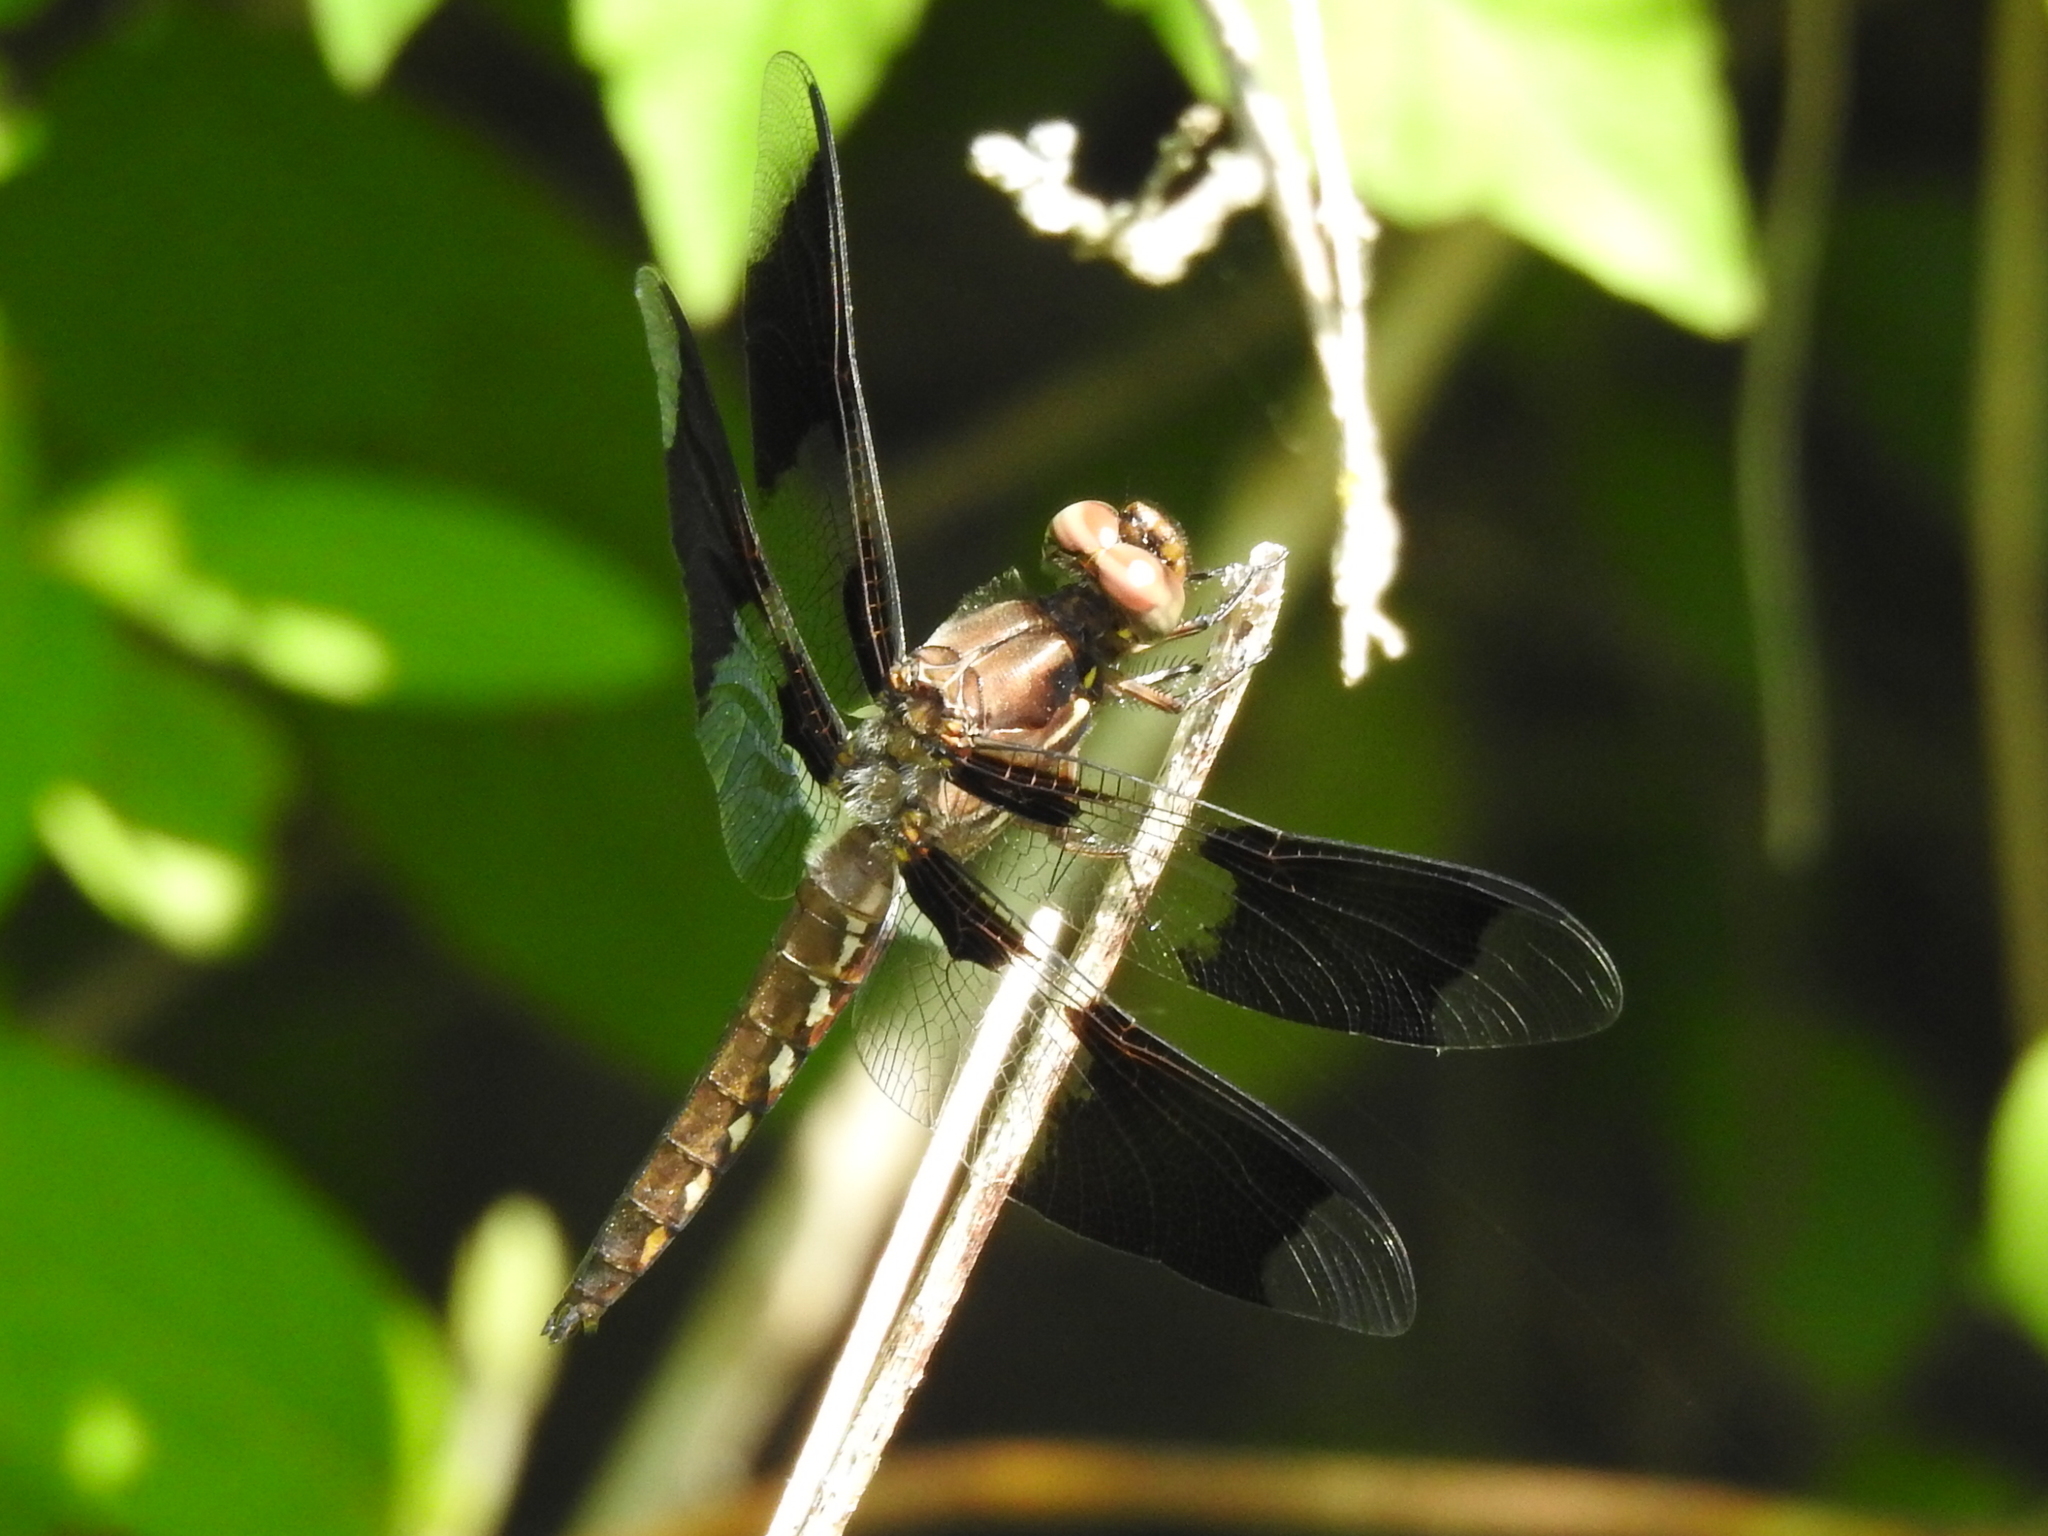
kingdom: Animalia
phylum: Arthropoda
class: Insecta
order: Odonata
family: Libellulidae
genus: Plathemis
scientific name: Plathemis lydia
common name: Common whitetail
